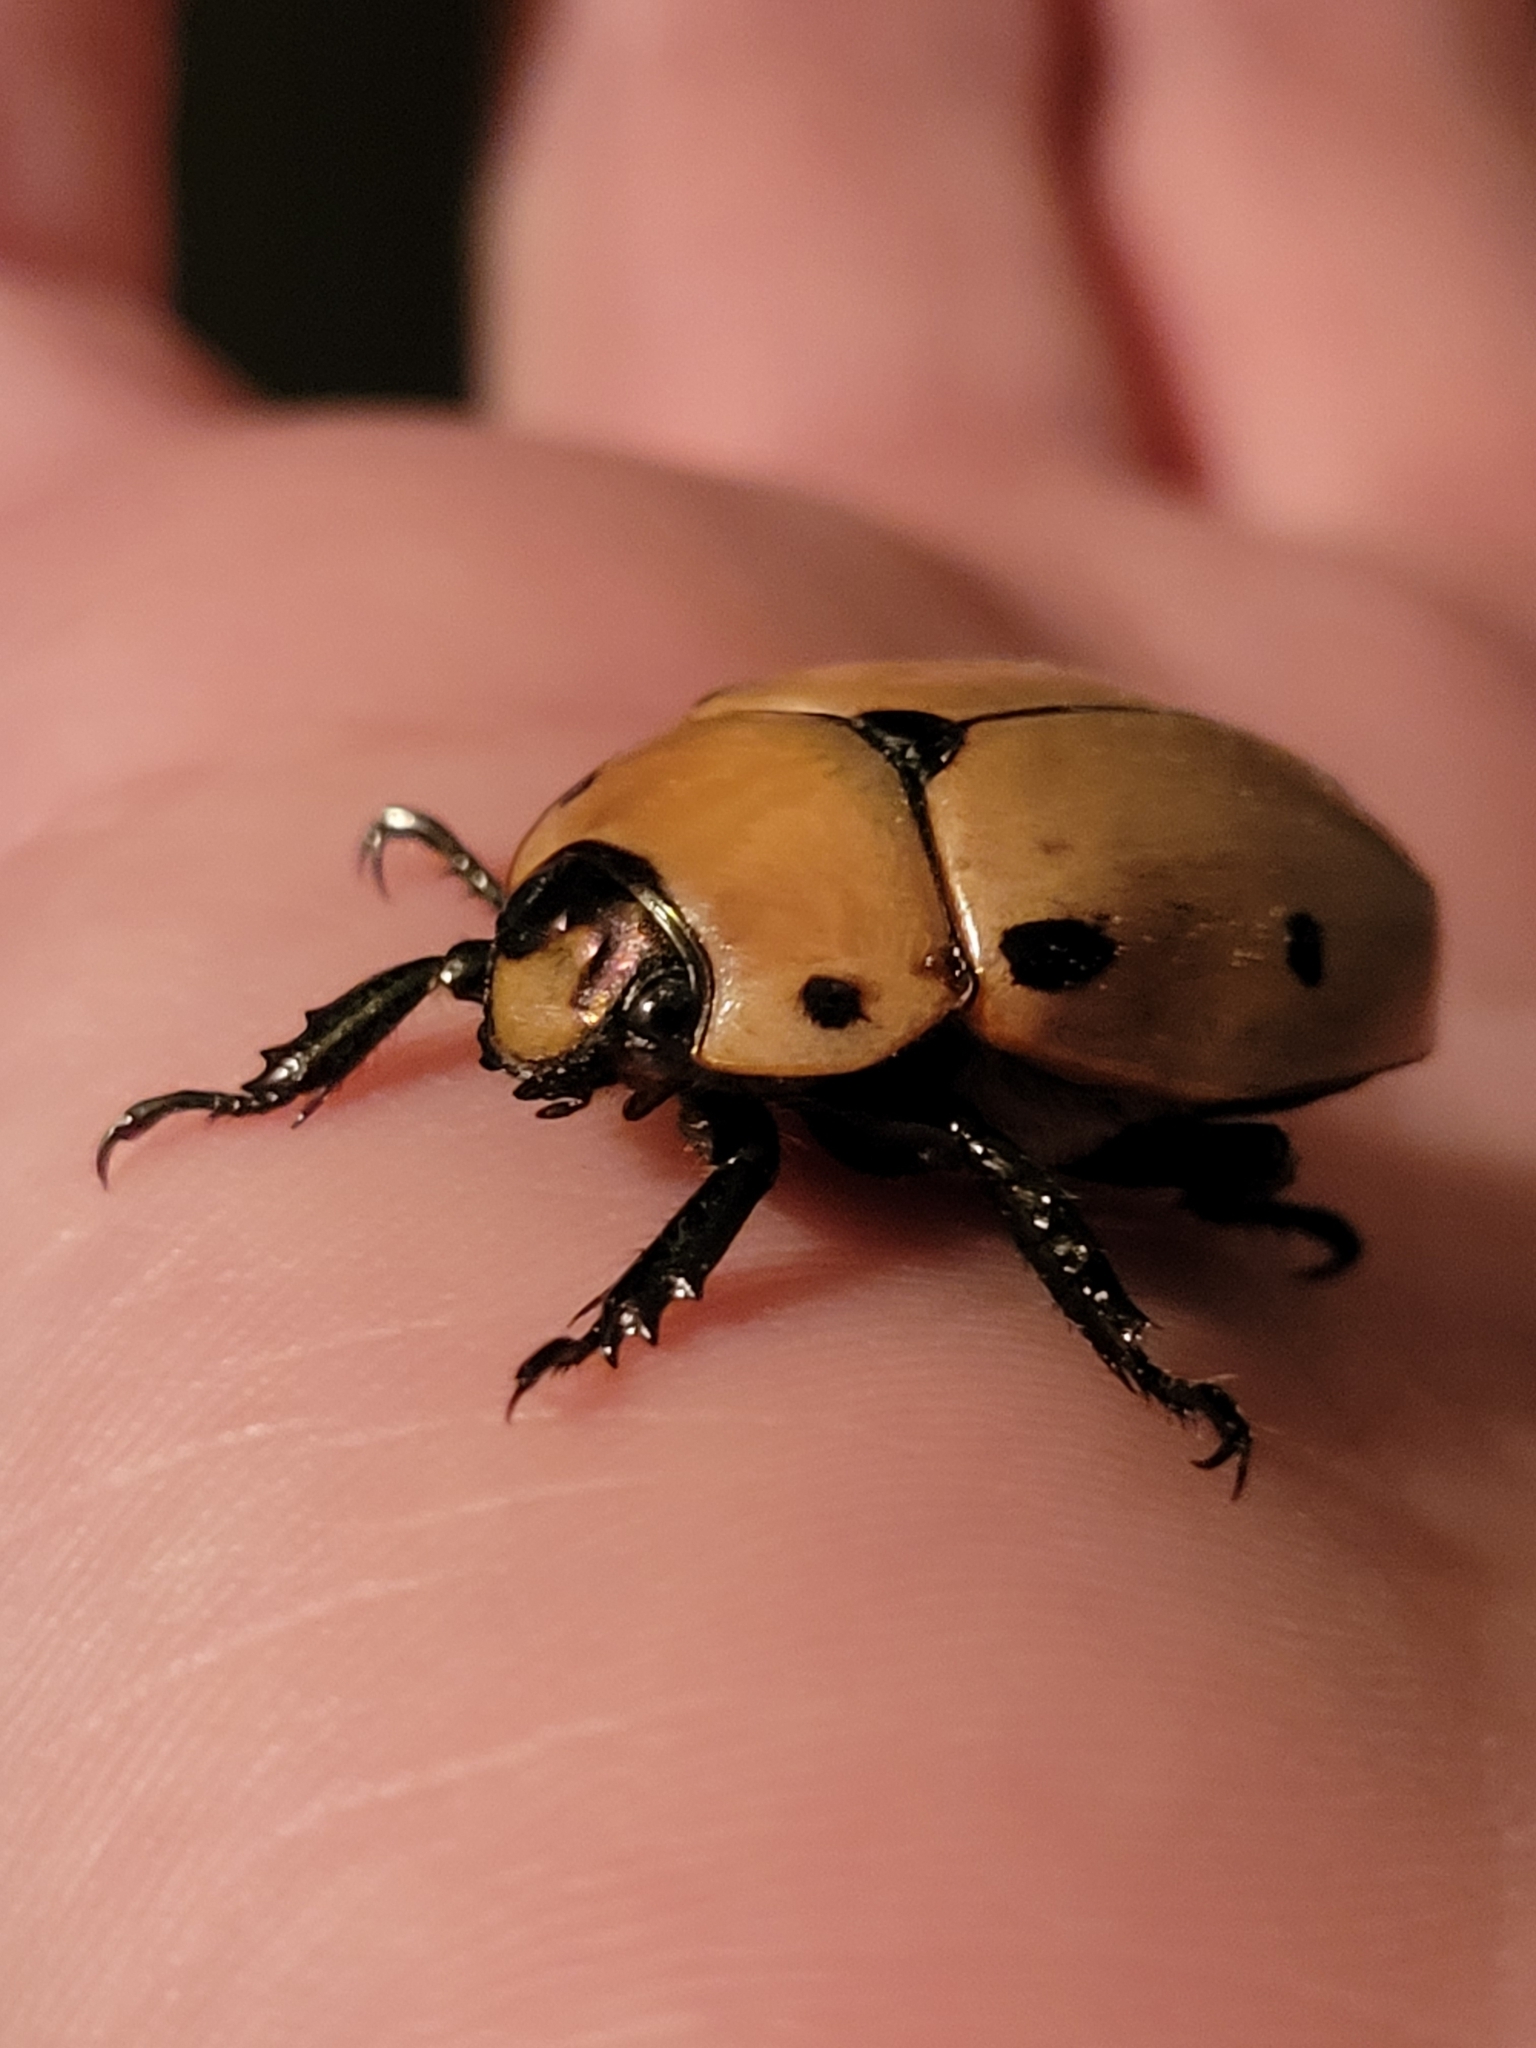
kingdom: Animalia
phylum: Arthropoda
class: Insecta
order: Coleoptera
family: Scarabaeidae
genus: Pelidnota
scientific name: Pelidnota punctata
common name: Grapevine beetle
